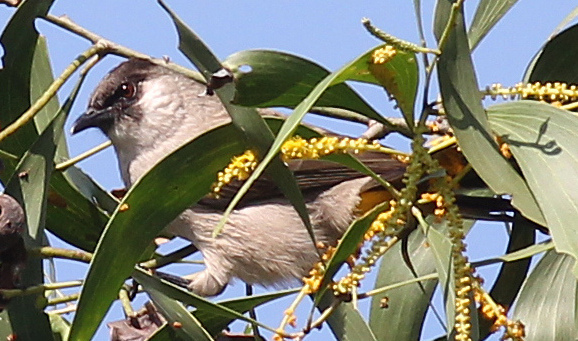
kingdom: Animalia
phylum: Chordata
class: Aves
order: Passeriformes
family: Pycnonotidae
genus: Pycnonotus
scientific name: Pycnonotus aurigaster
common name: Sooty-headed bulbul
